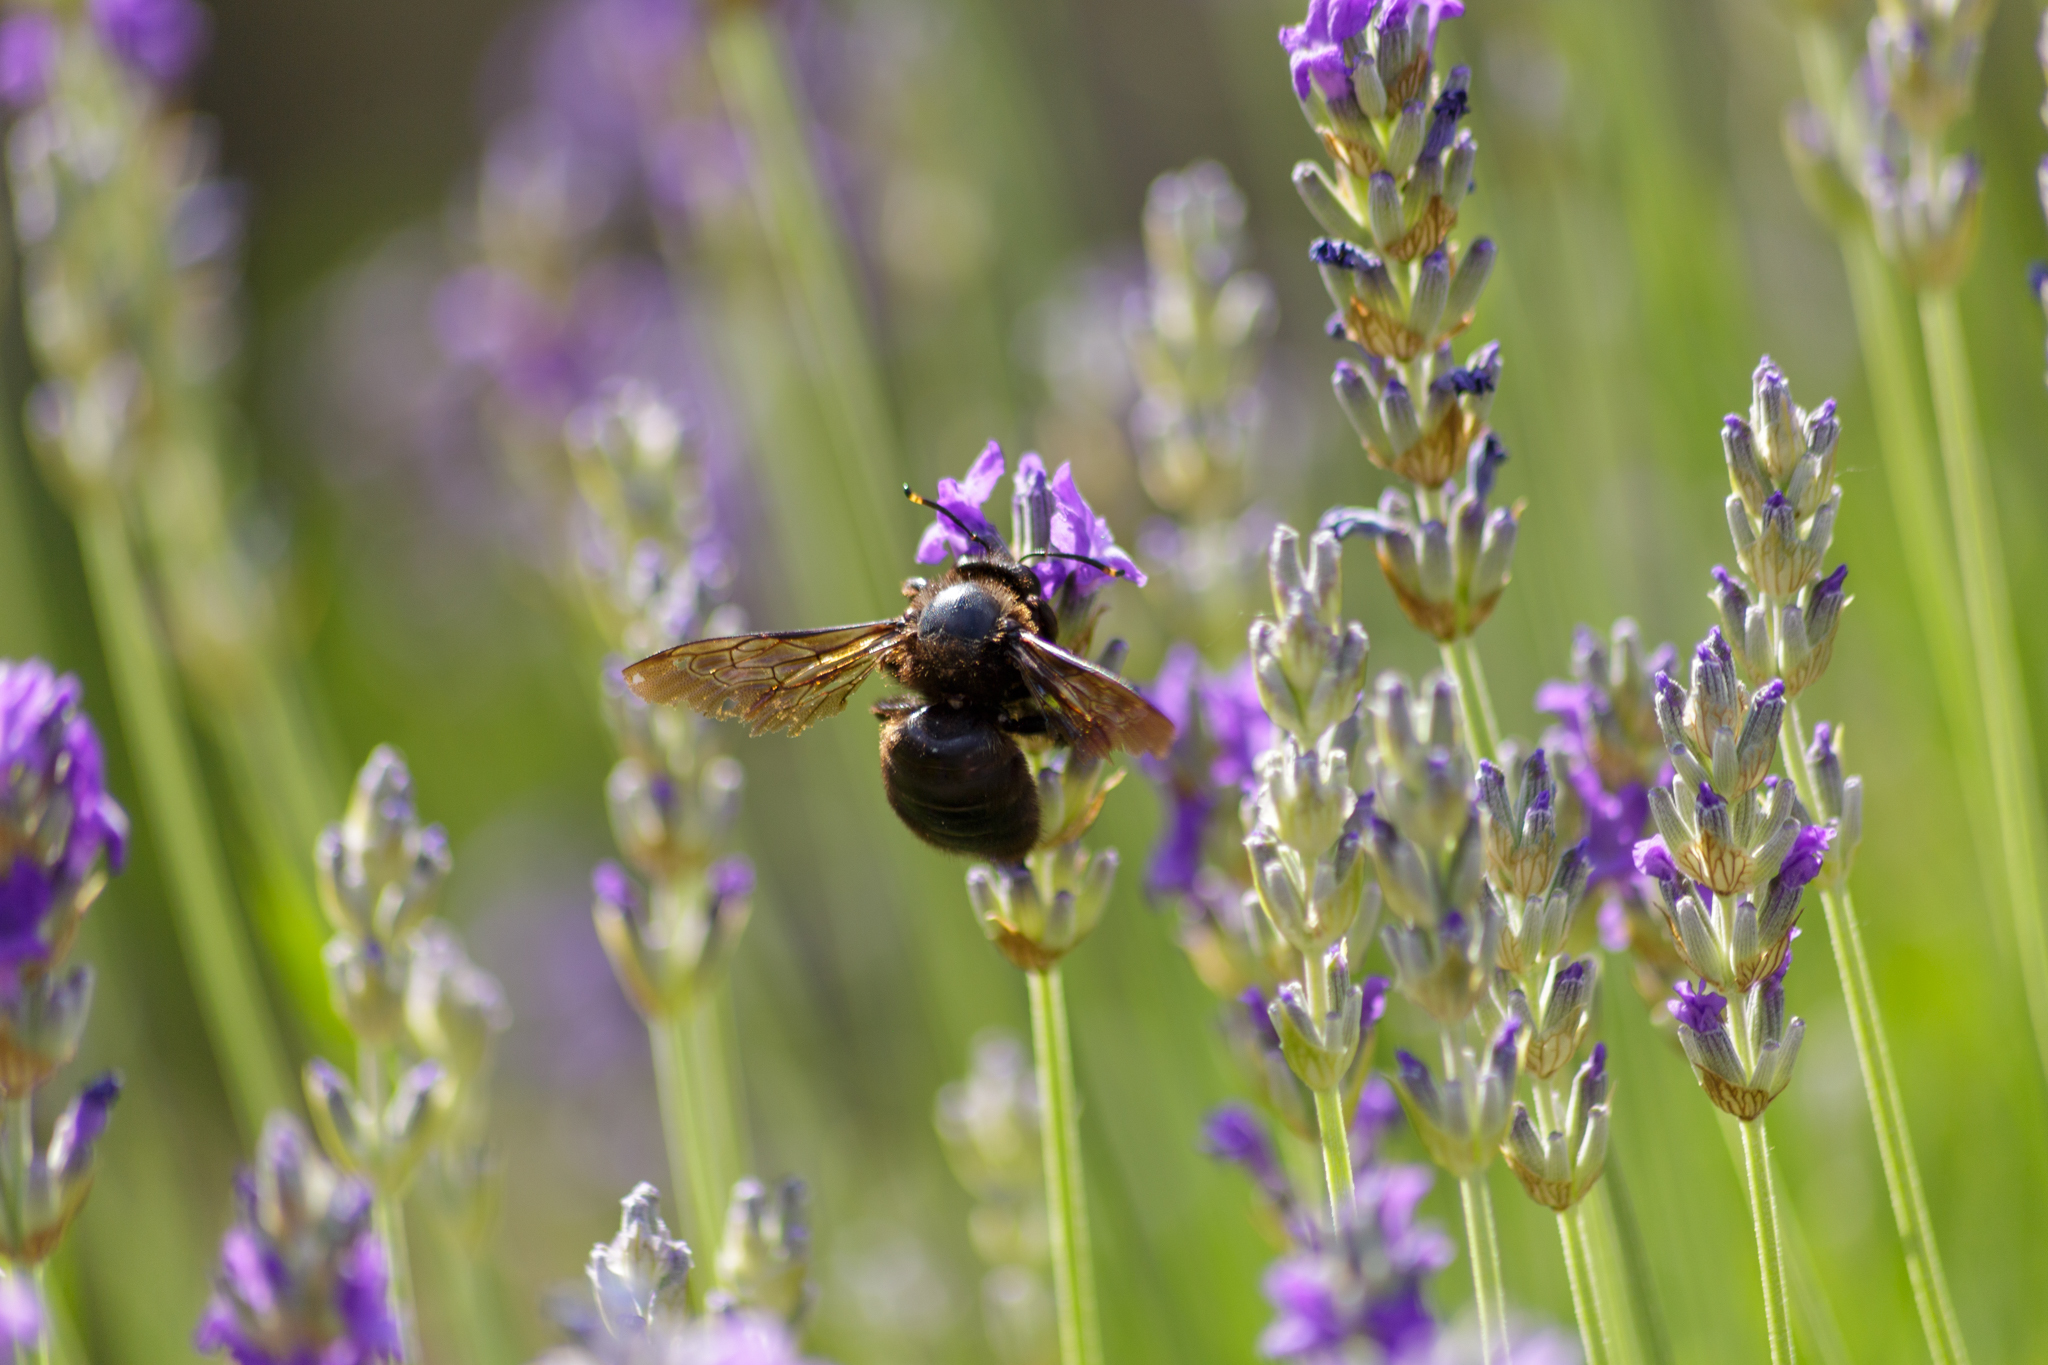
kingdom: Animalia
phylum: Arthropoda
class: Insecta
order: Hymenoptera
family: Apidae
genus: Xylocopa
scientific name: Xylocopa violacea
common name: Violet carpenter bee
